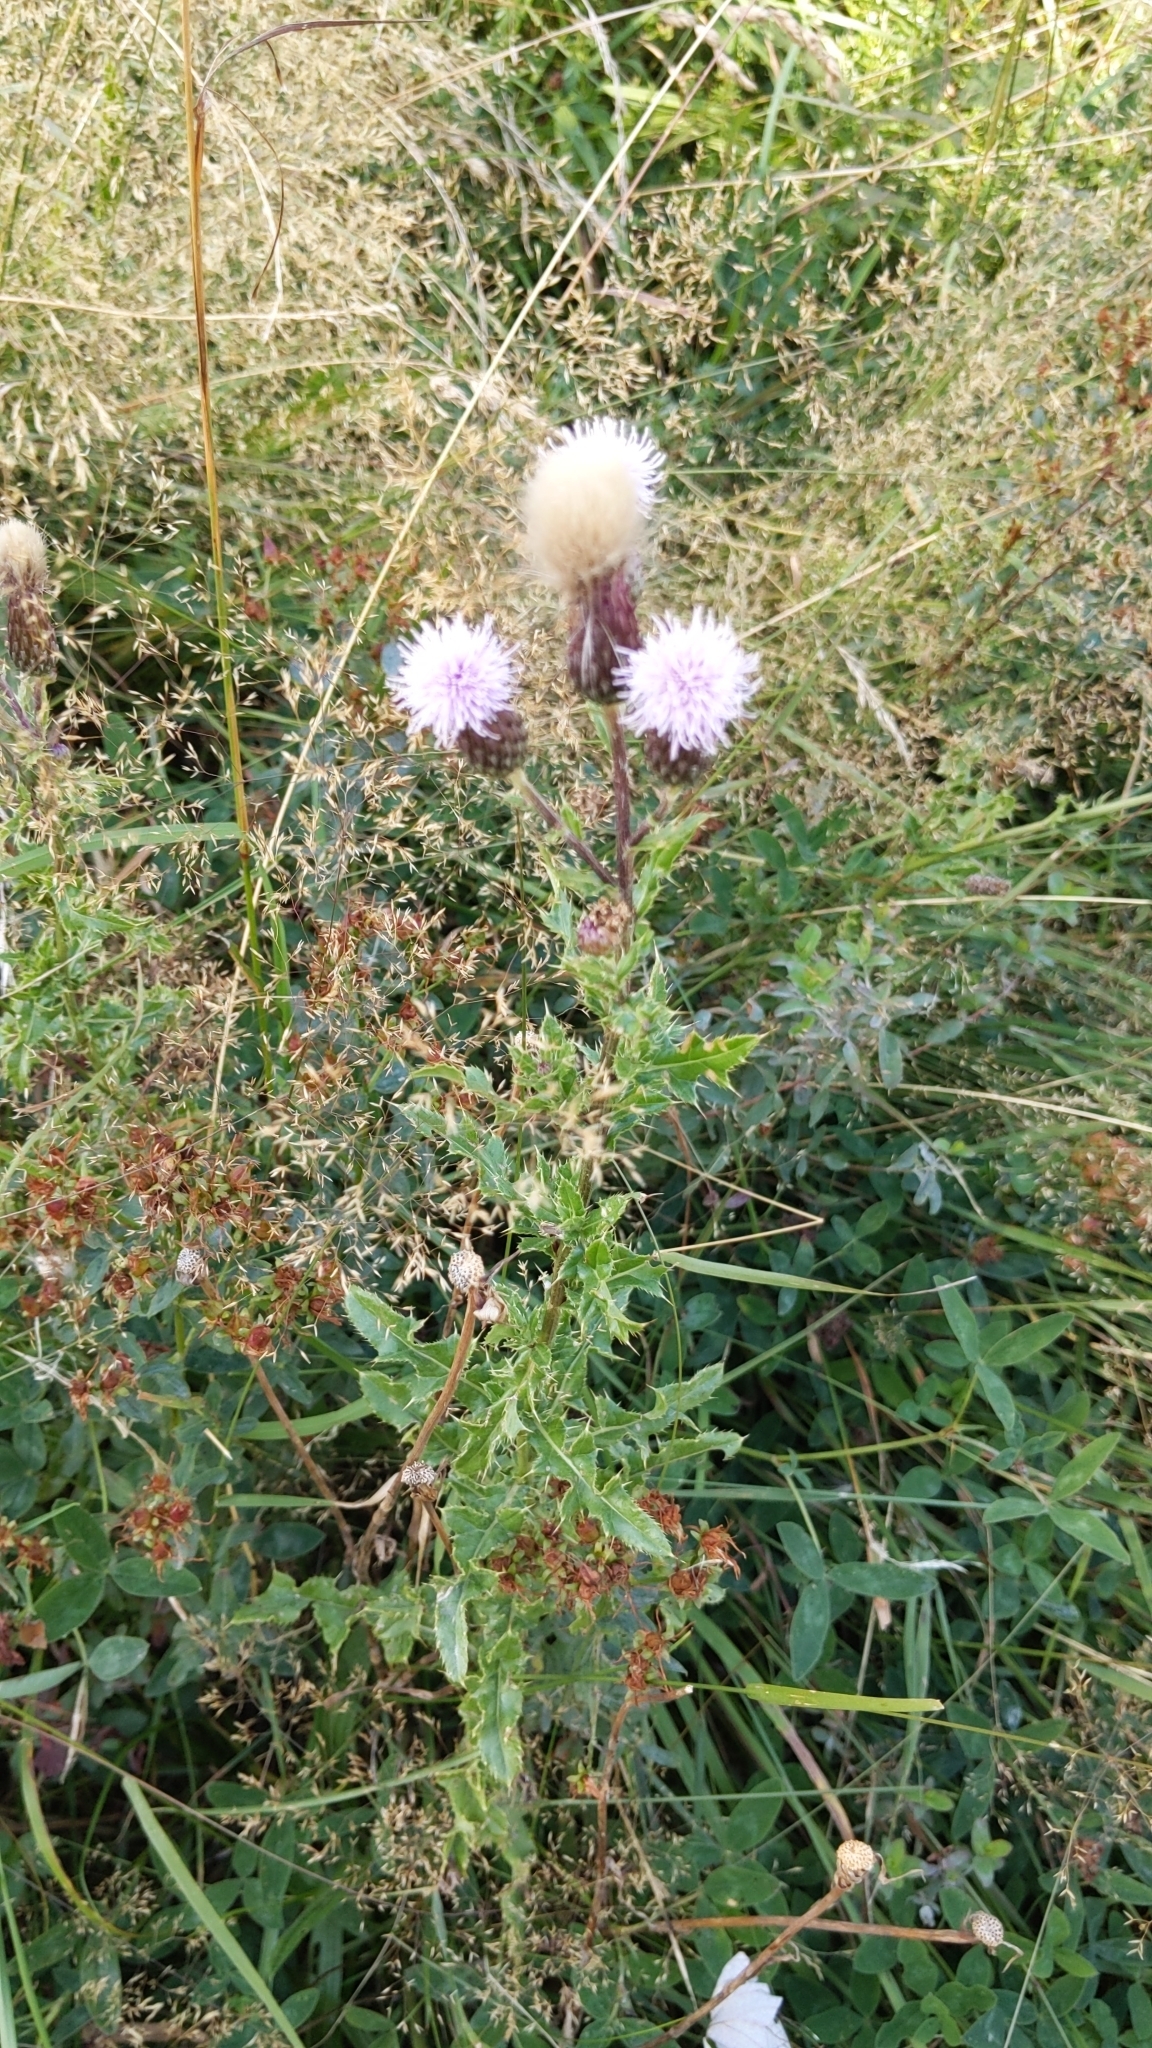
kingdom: Plantae
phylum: Tracheophyta
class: Magnoliopsida
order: Asterales
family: Asteraceae
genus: Cirsium
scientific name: Cirsium arvense
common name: Creeping thistle
